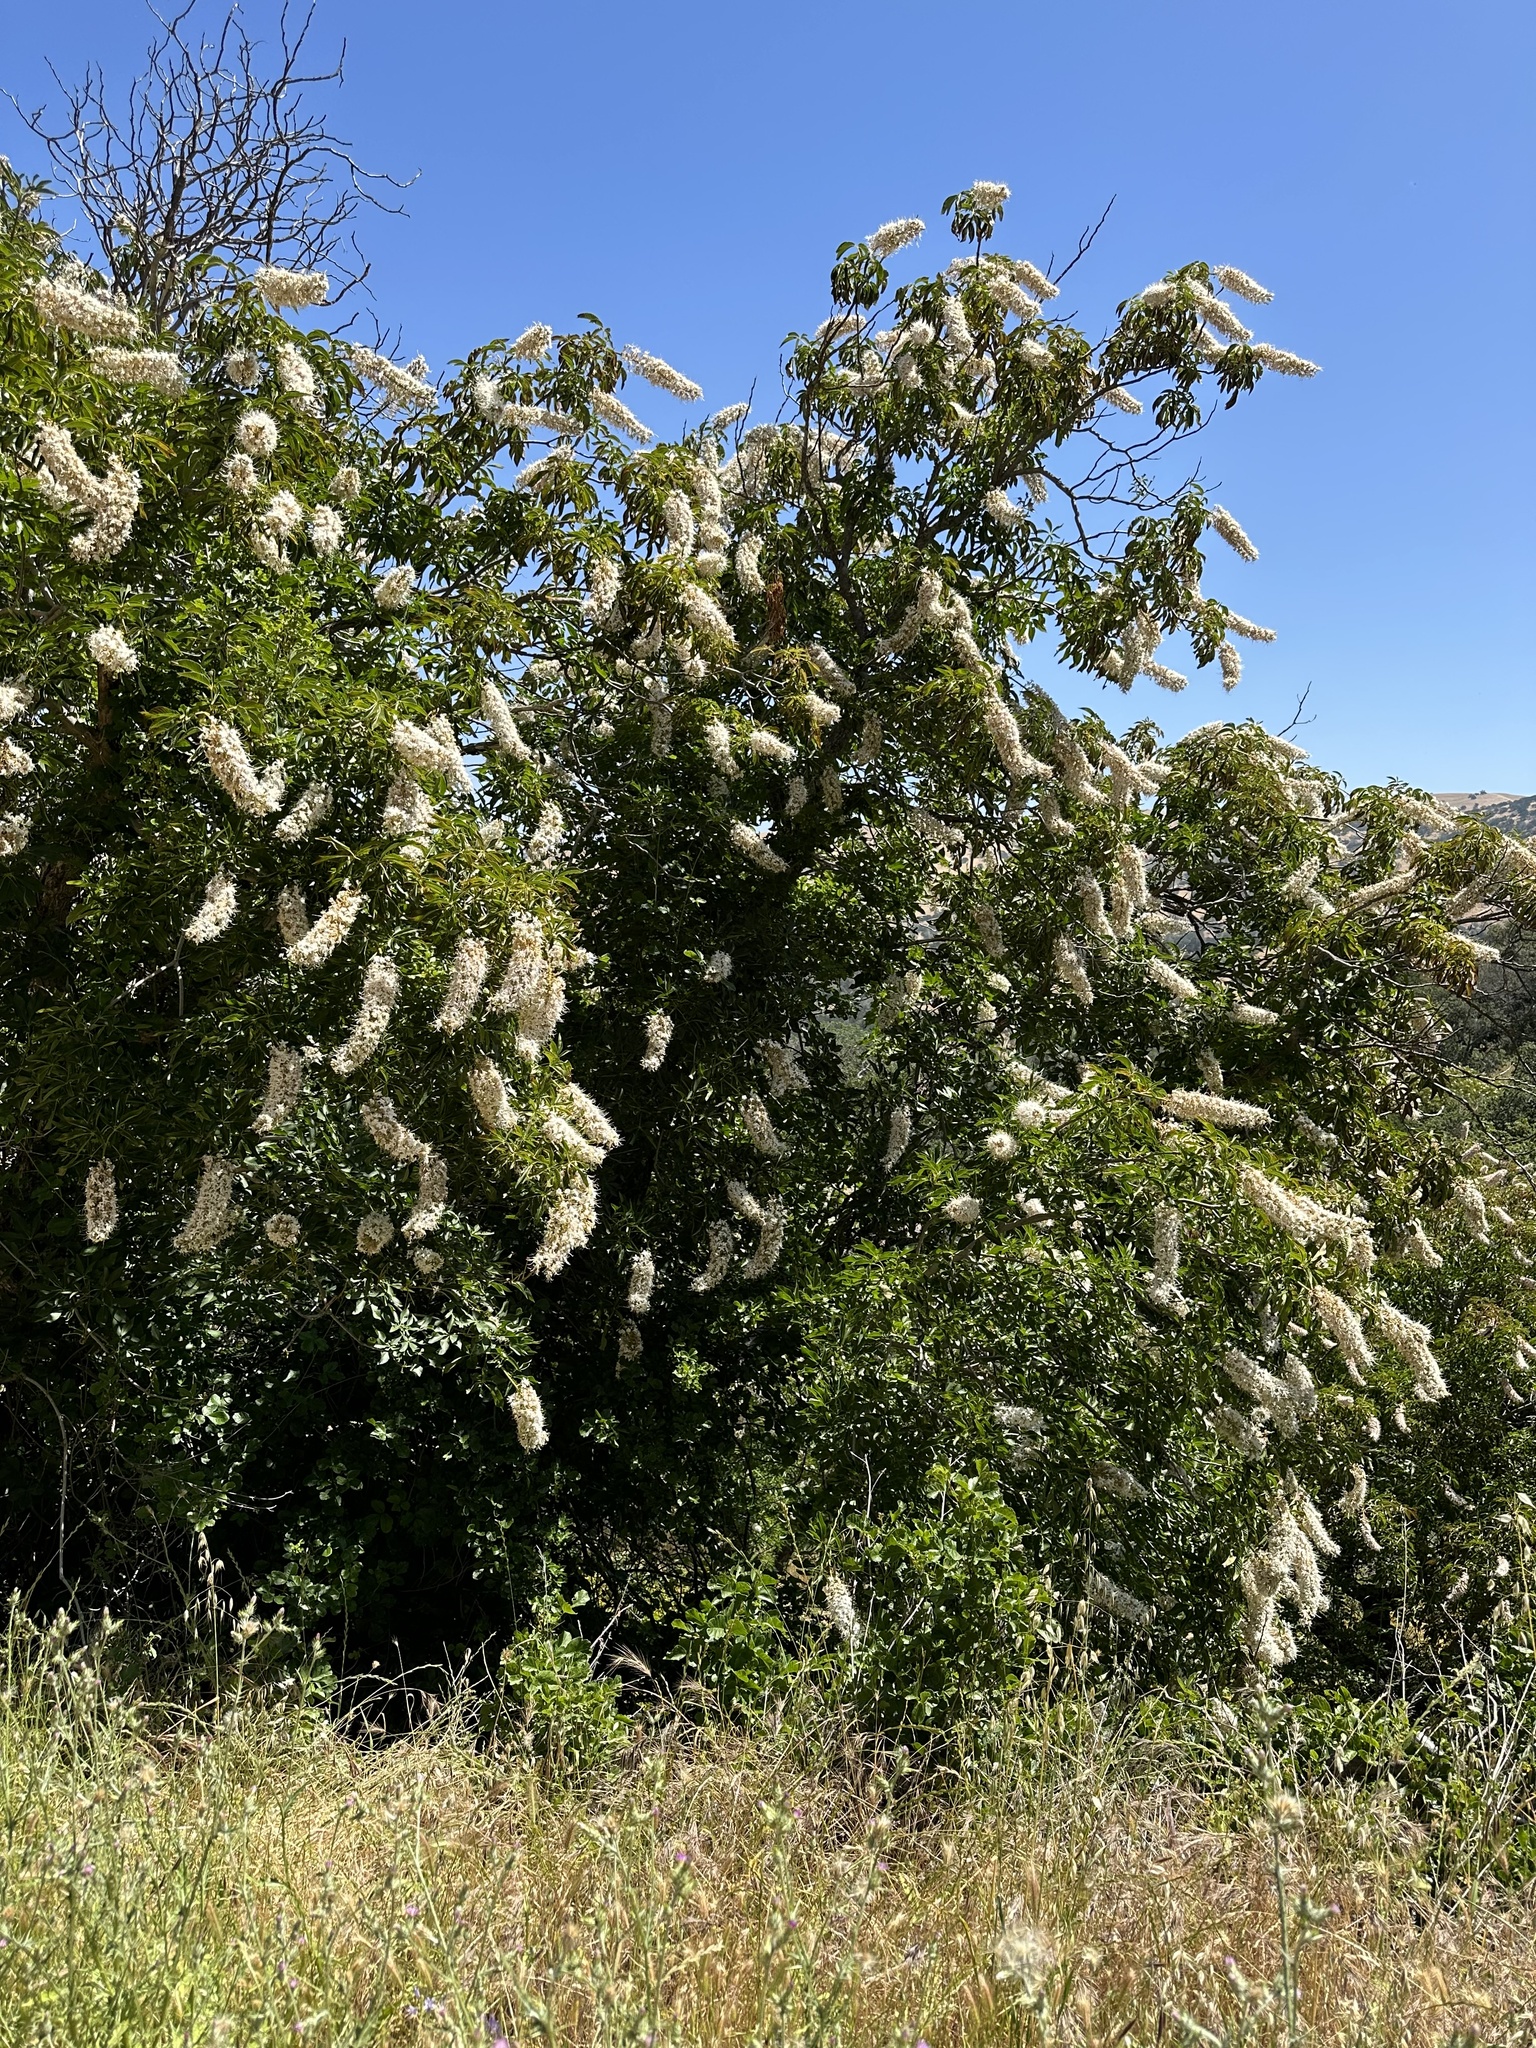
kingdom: Plantae
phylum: Tracheophyta
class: Magnoliopsida
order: Sapindales
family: Sapindaceae
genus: Aesculus
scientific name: Aesculus californica
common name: California buckeye
